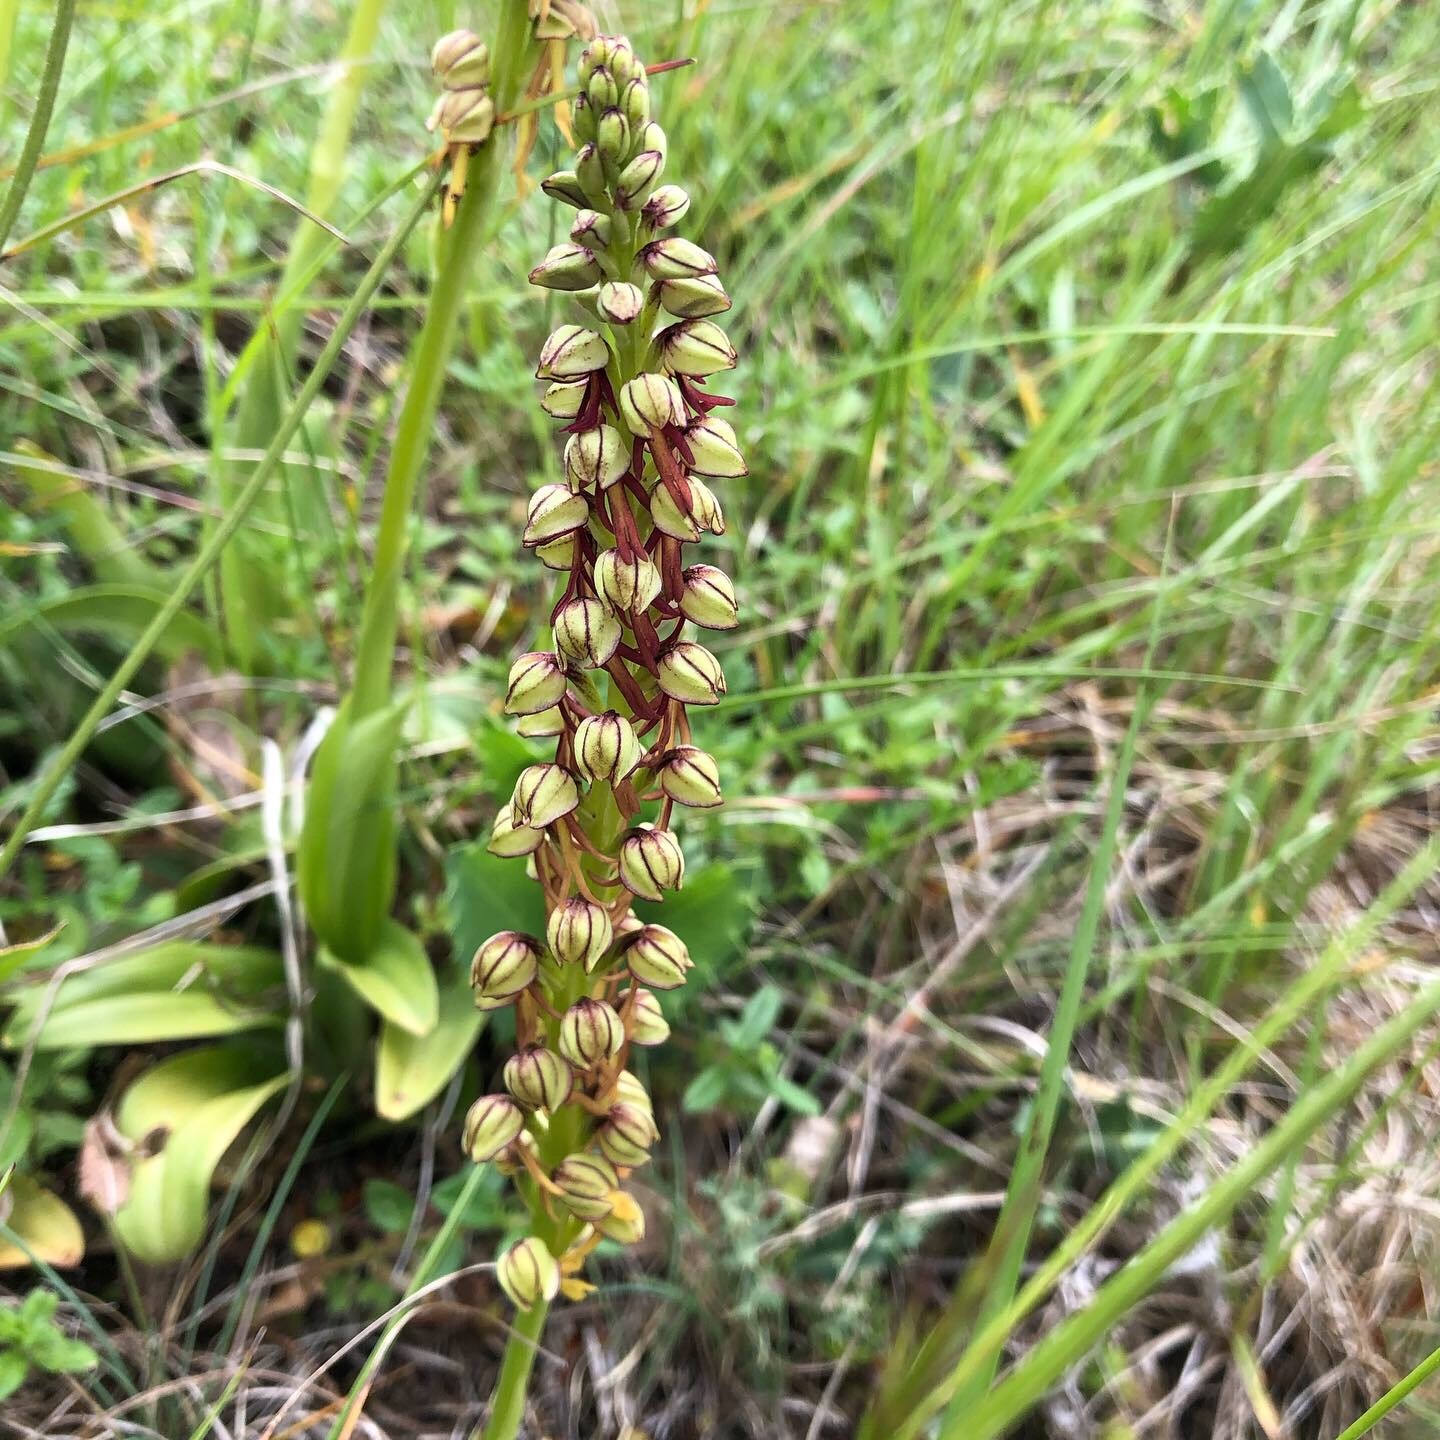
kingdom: Plantae
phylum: Tracheophyta
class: Liliopsida
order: Asparagales
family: Orchidaceae
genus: Orchis
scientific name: Orchis anthropophora
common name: Man orchid
